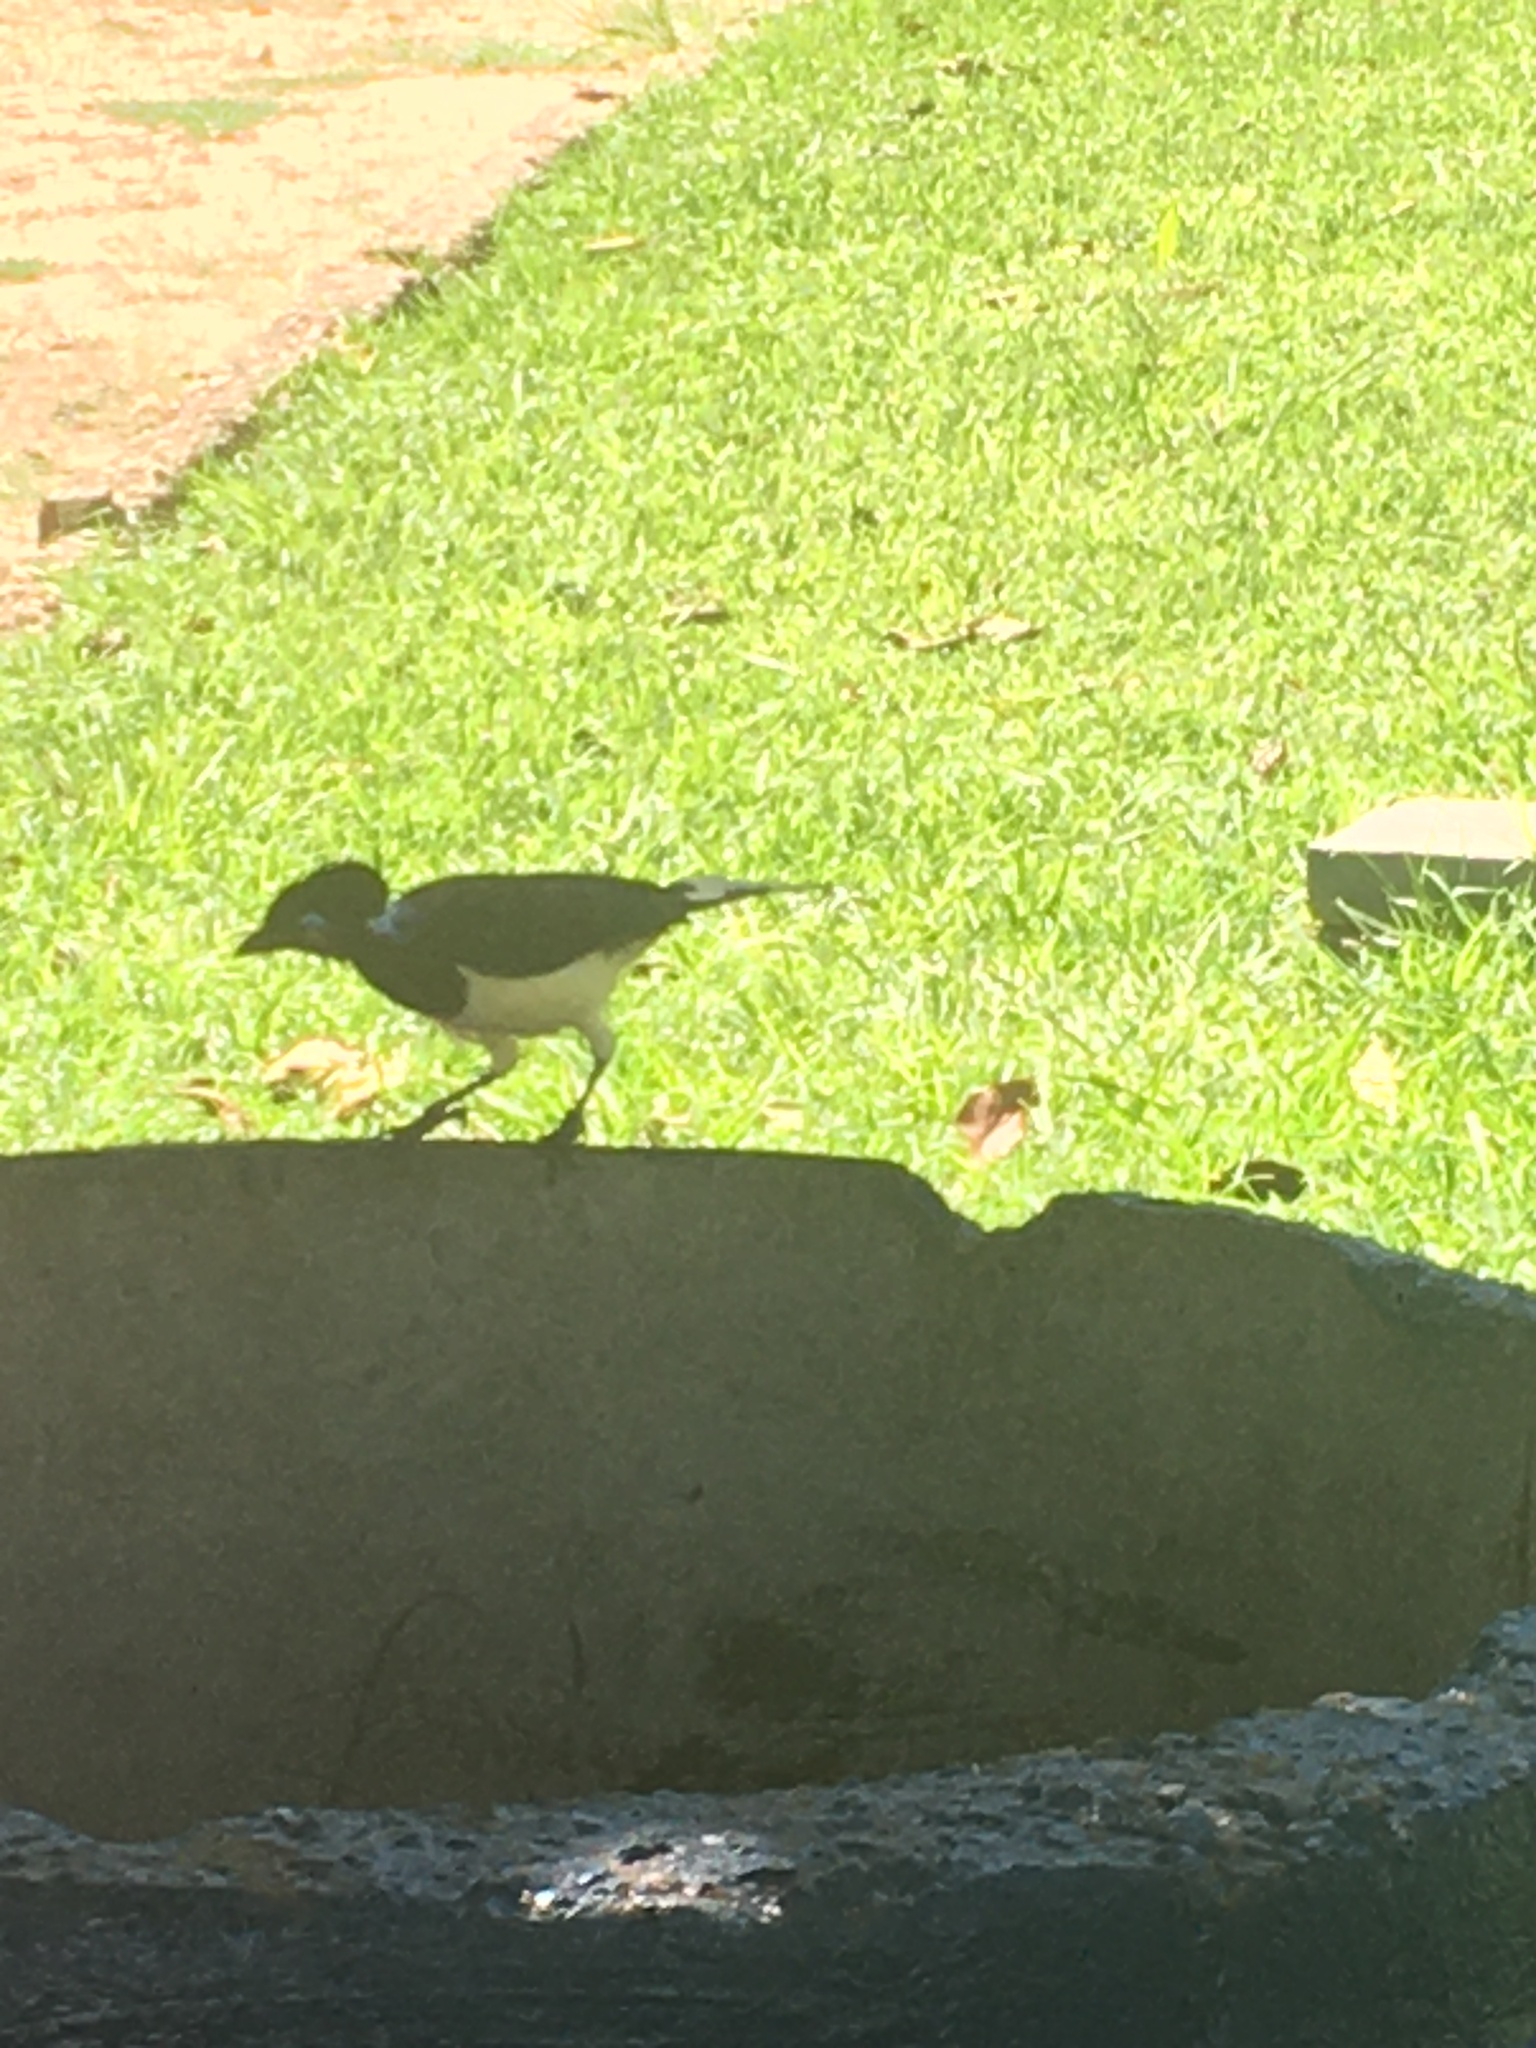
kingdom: Animalia
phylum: Chordata
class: Aves
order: Passeriformes
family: Corvidae
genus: Cyanocorax
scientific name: Cyanocorax chrysops
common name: Plush-crested jay
